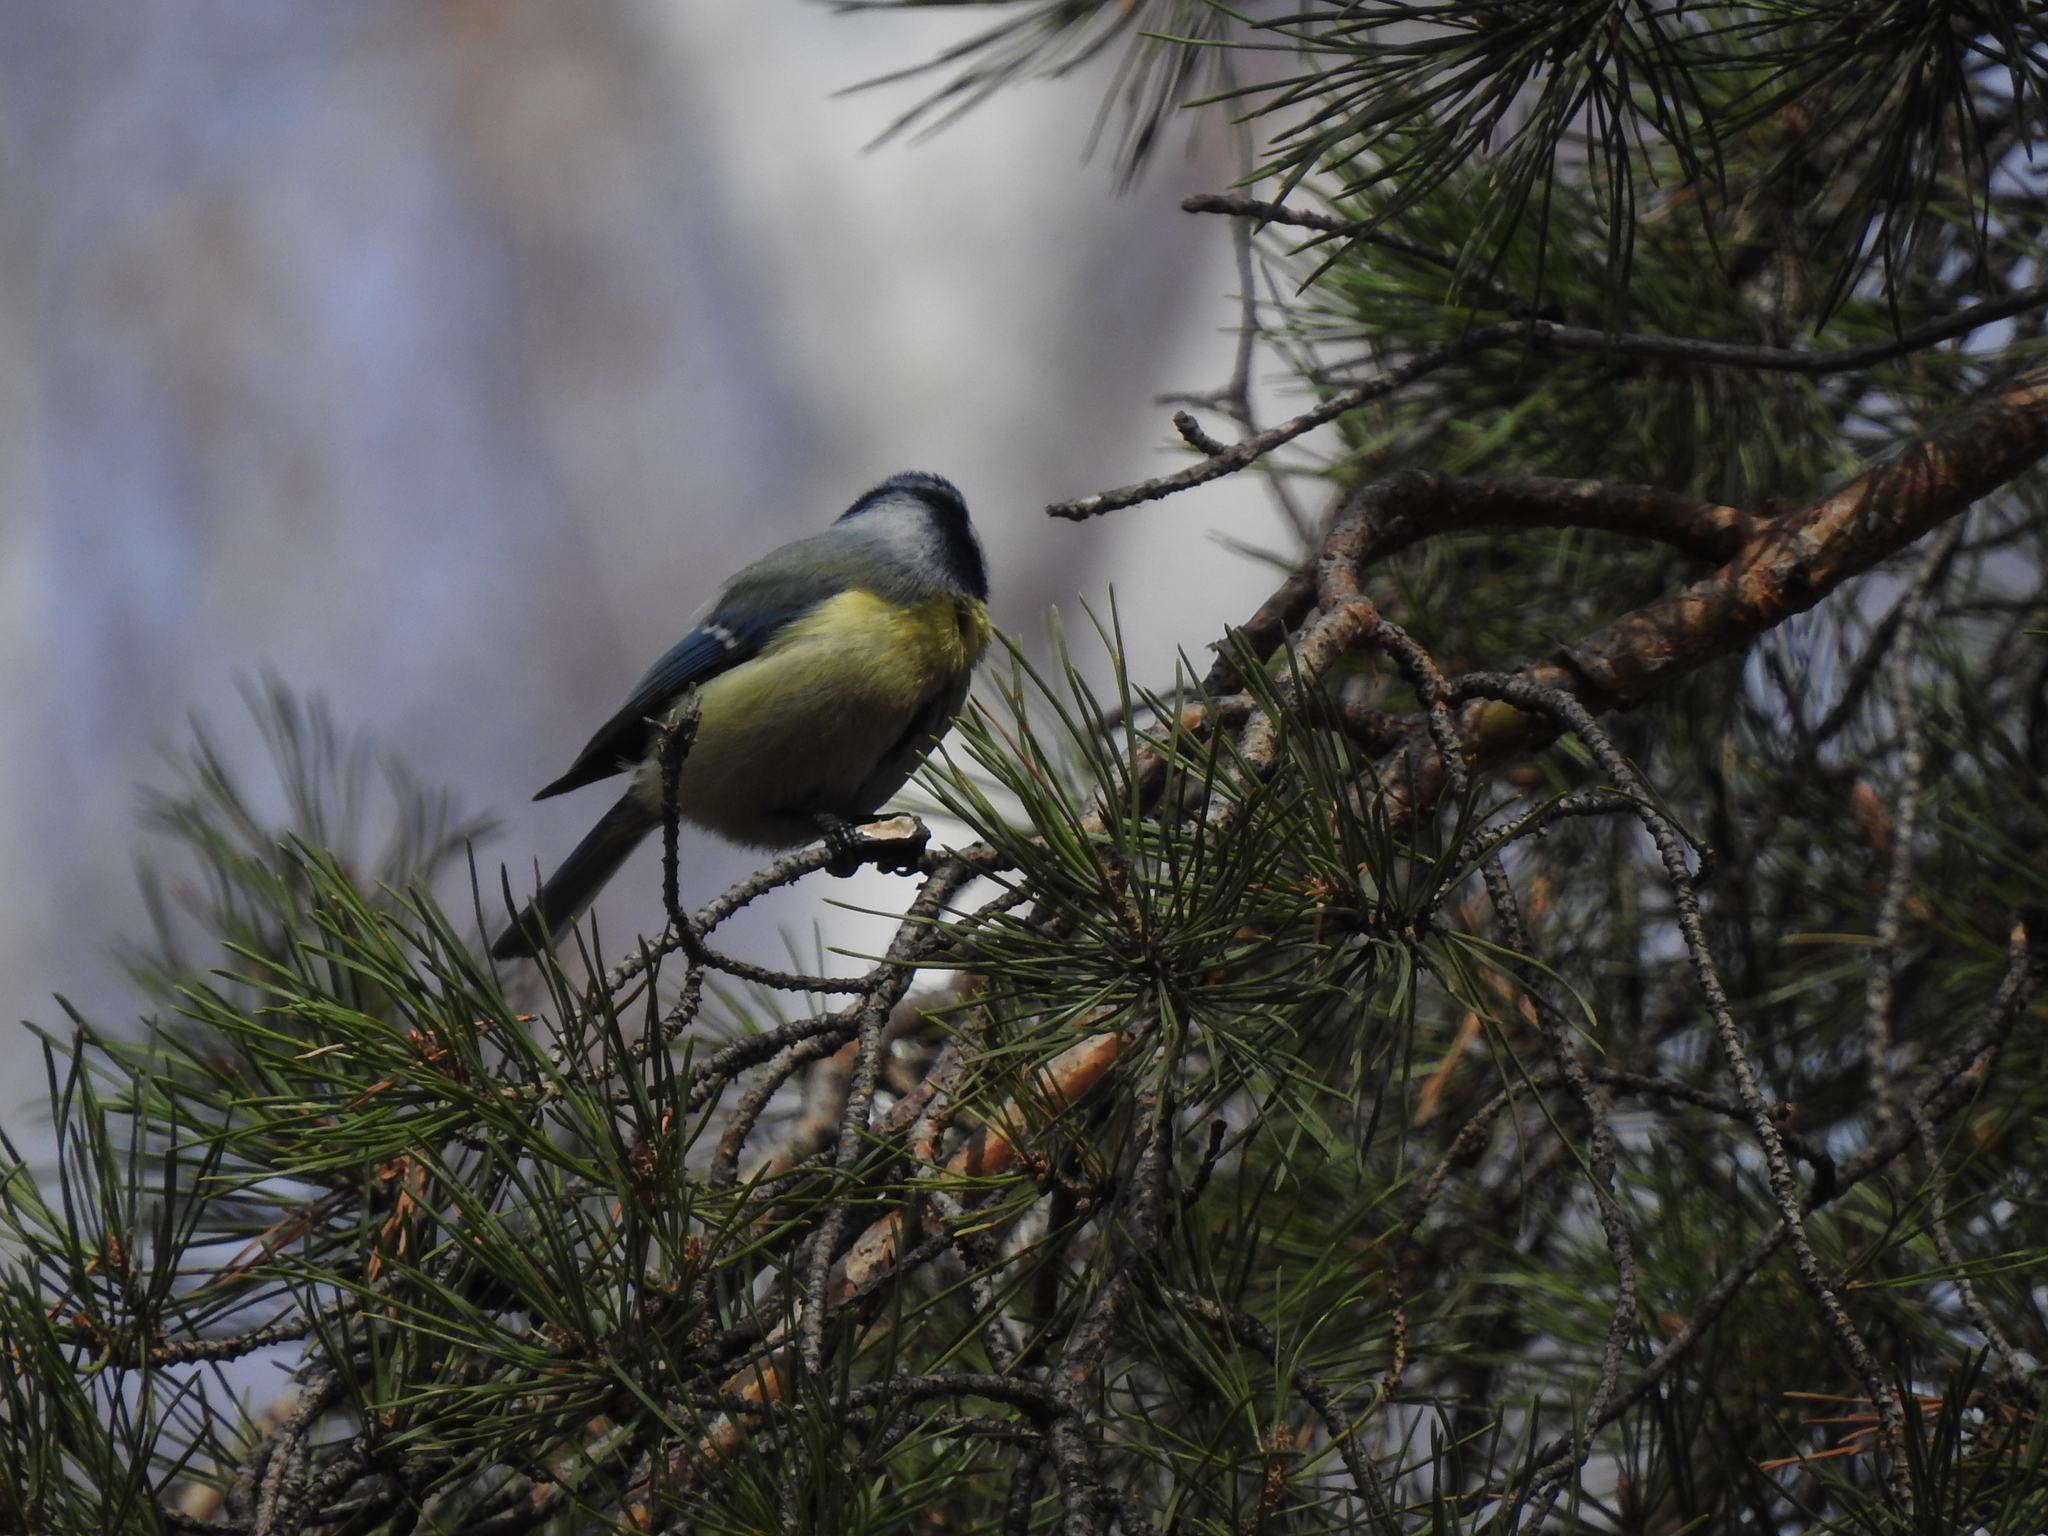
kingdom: Animalia
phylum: Chordata
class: Aves
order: Passeriformes
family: Paridae
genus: Cyanistes
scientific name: Cyanistes caeruleus
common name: Eurasian blue tit
